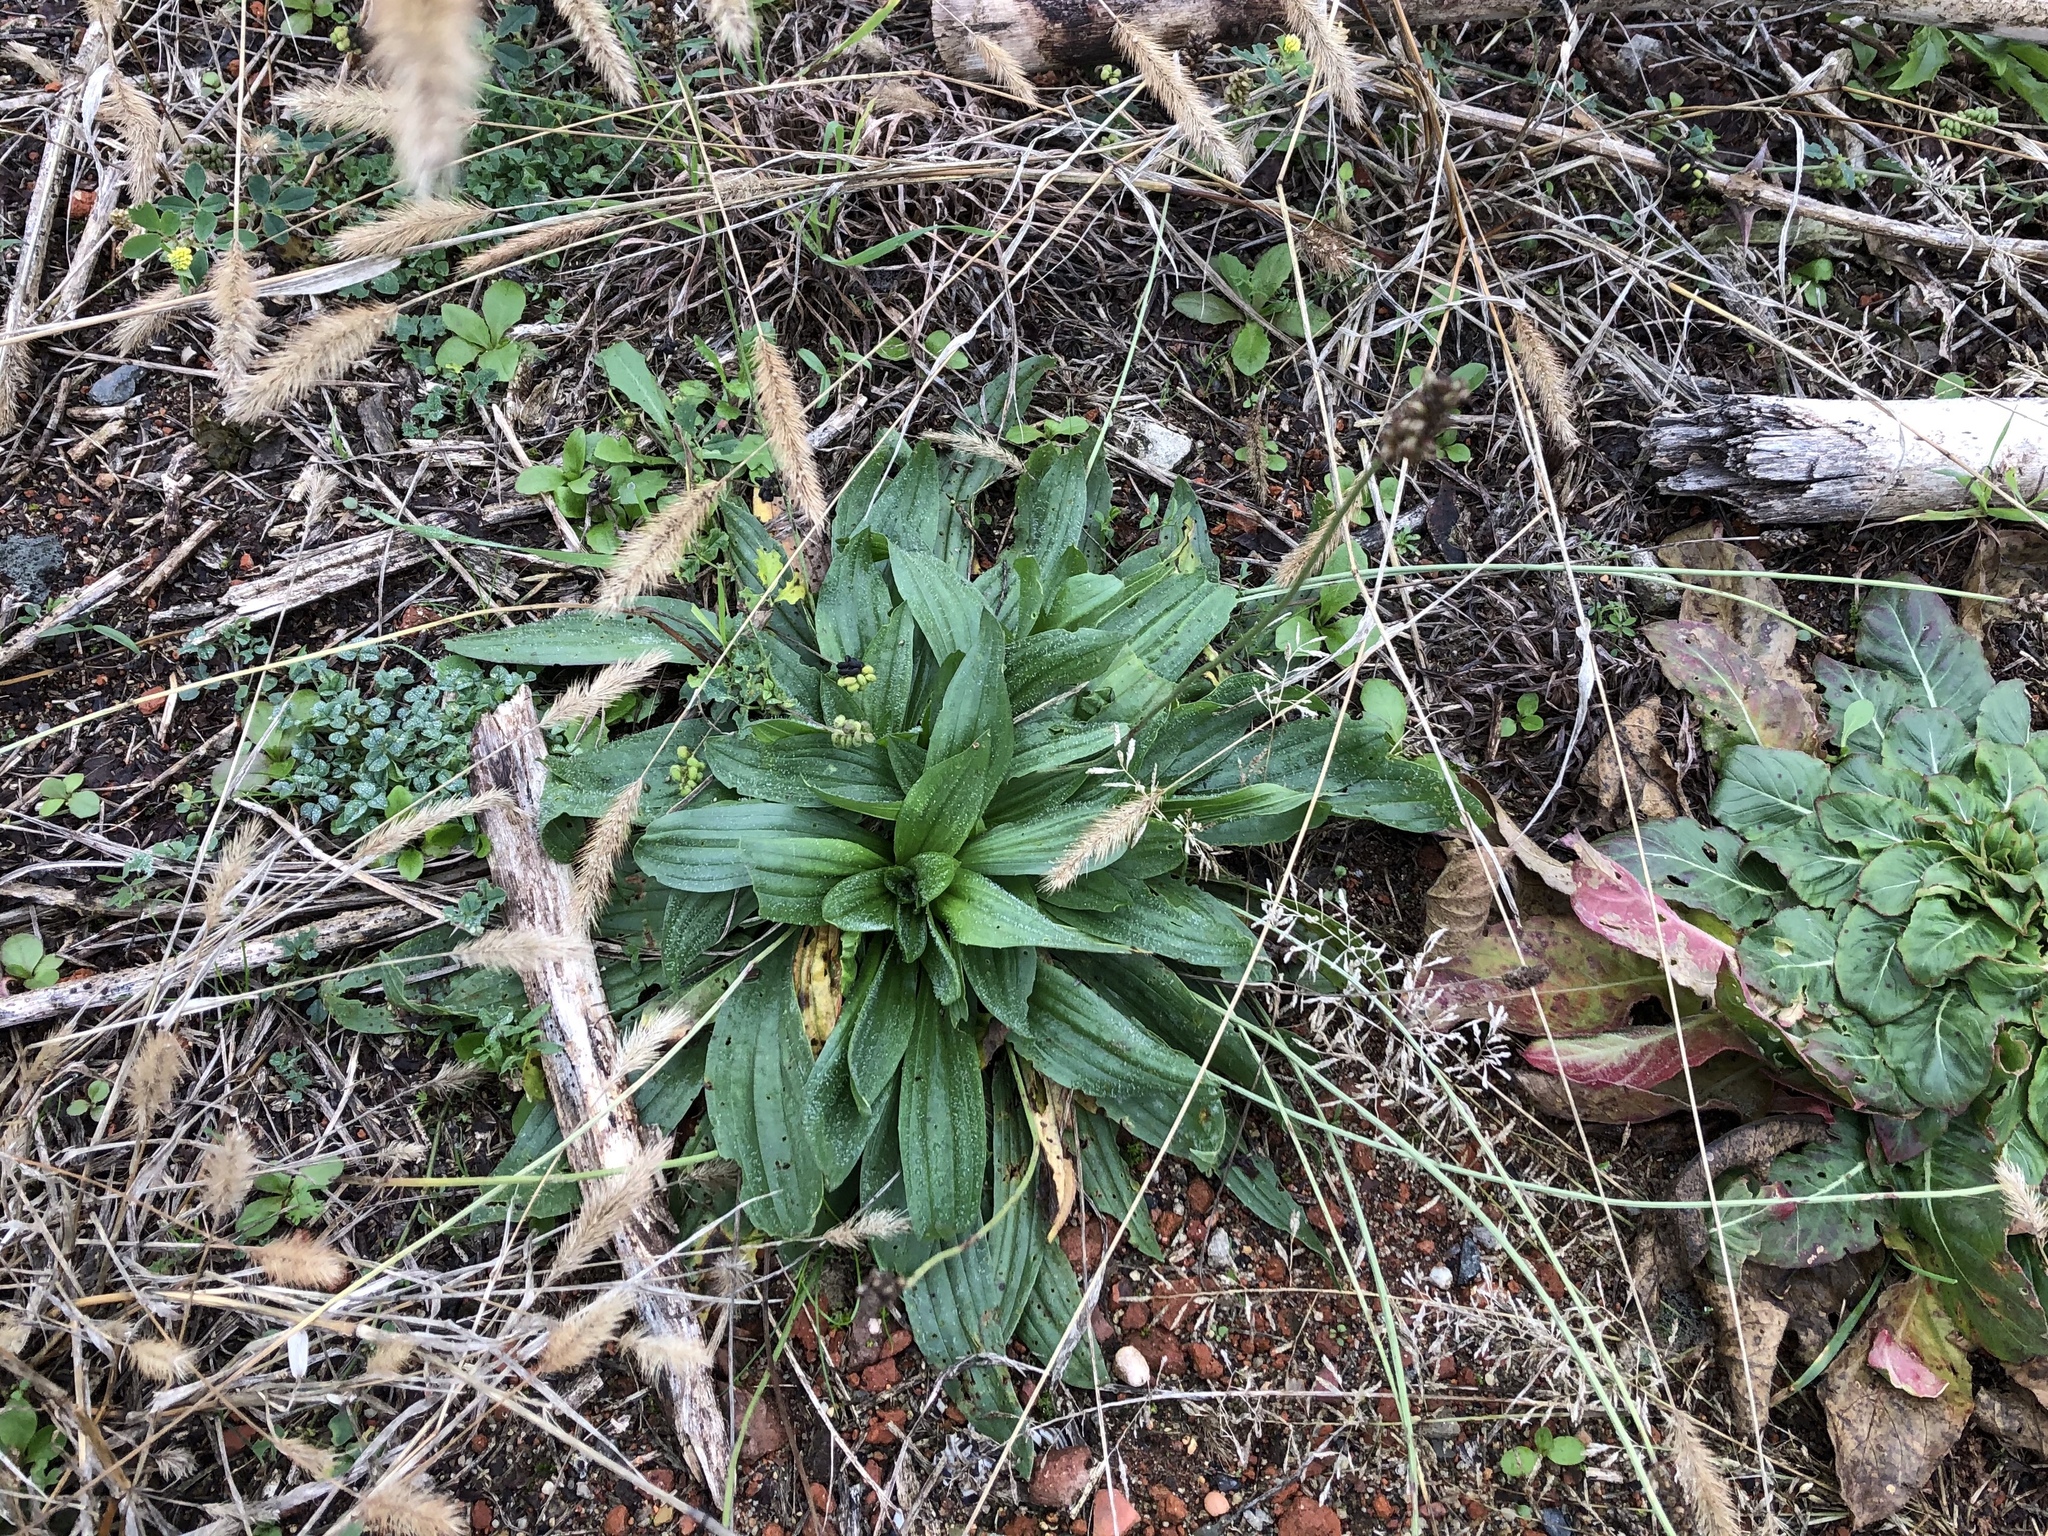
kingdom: Plantae
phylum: Tracheophyta
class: Magnoliopsida
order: Lamiales
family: Plantaginaceae
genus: Plantago
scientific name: Plantago lanceolata
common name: Ribwort plantain
